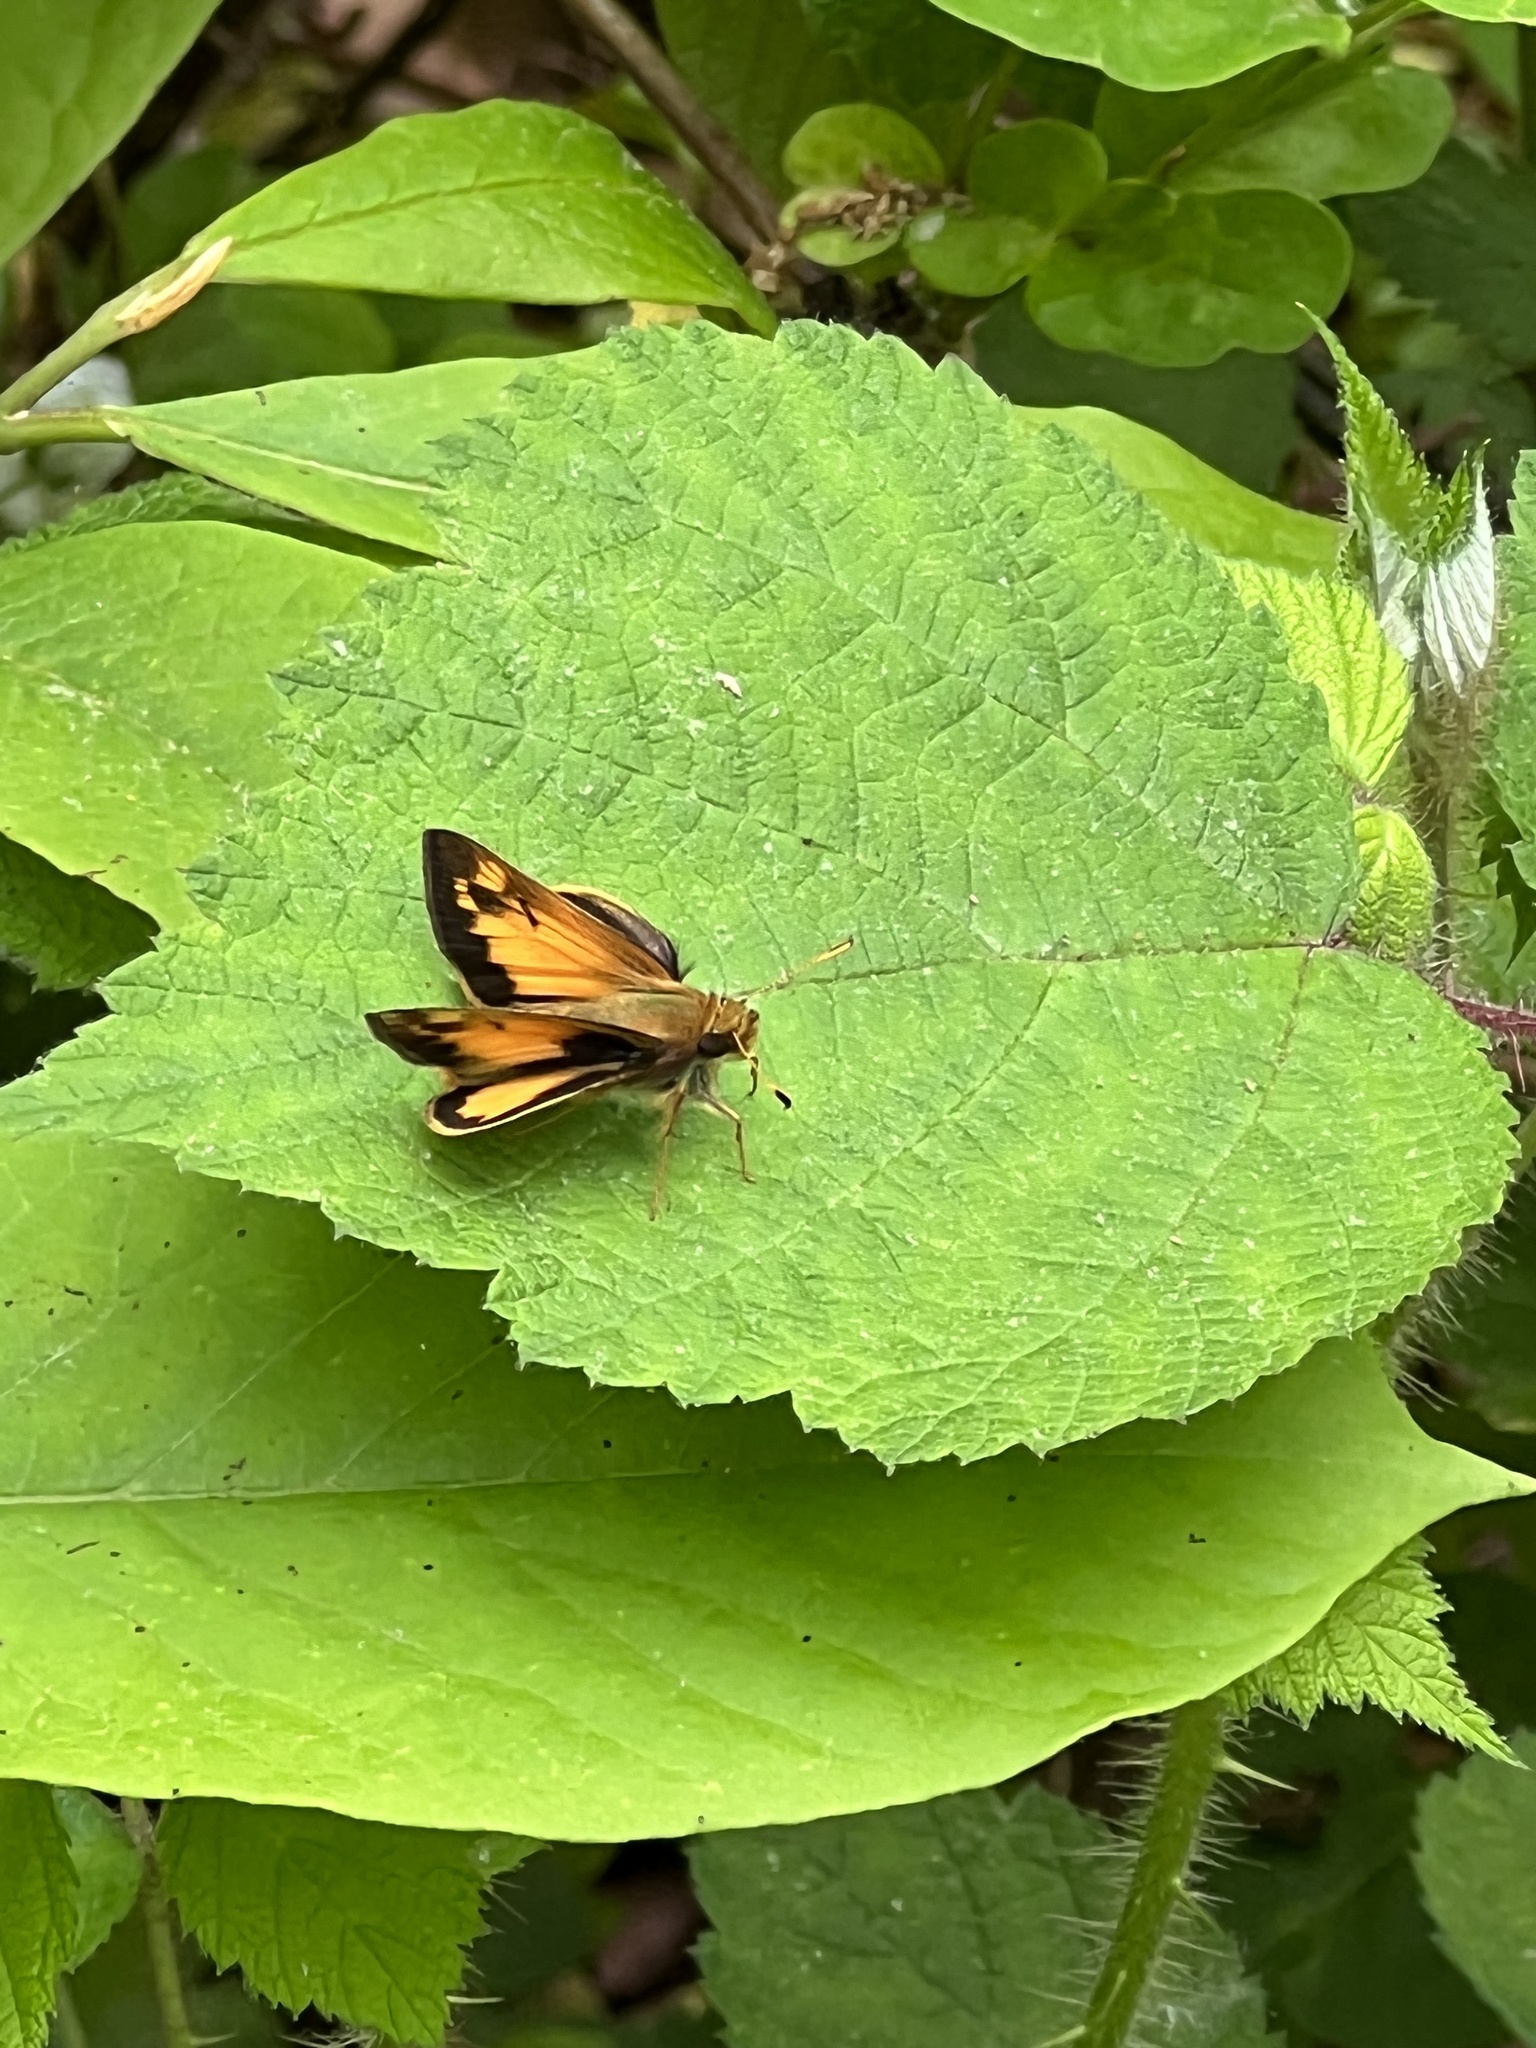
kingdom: Animalia
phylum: Arthropoda
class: Insecta
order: Lepidoptera
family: Hesperiidae
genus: Lon
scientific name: Lon zabulon
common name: Zabulon skipper
